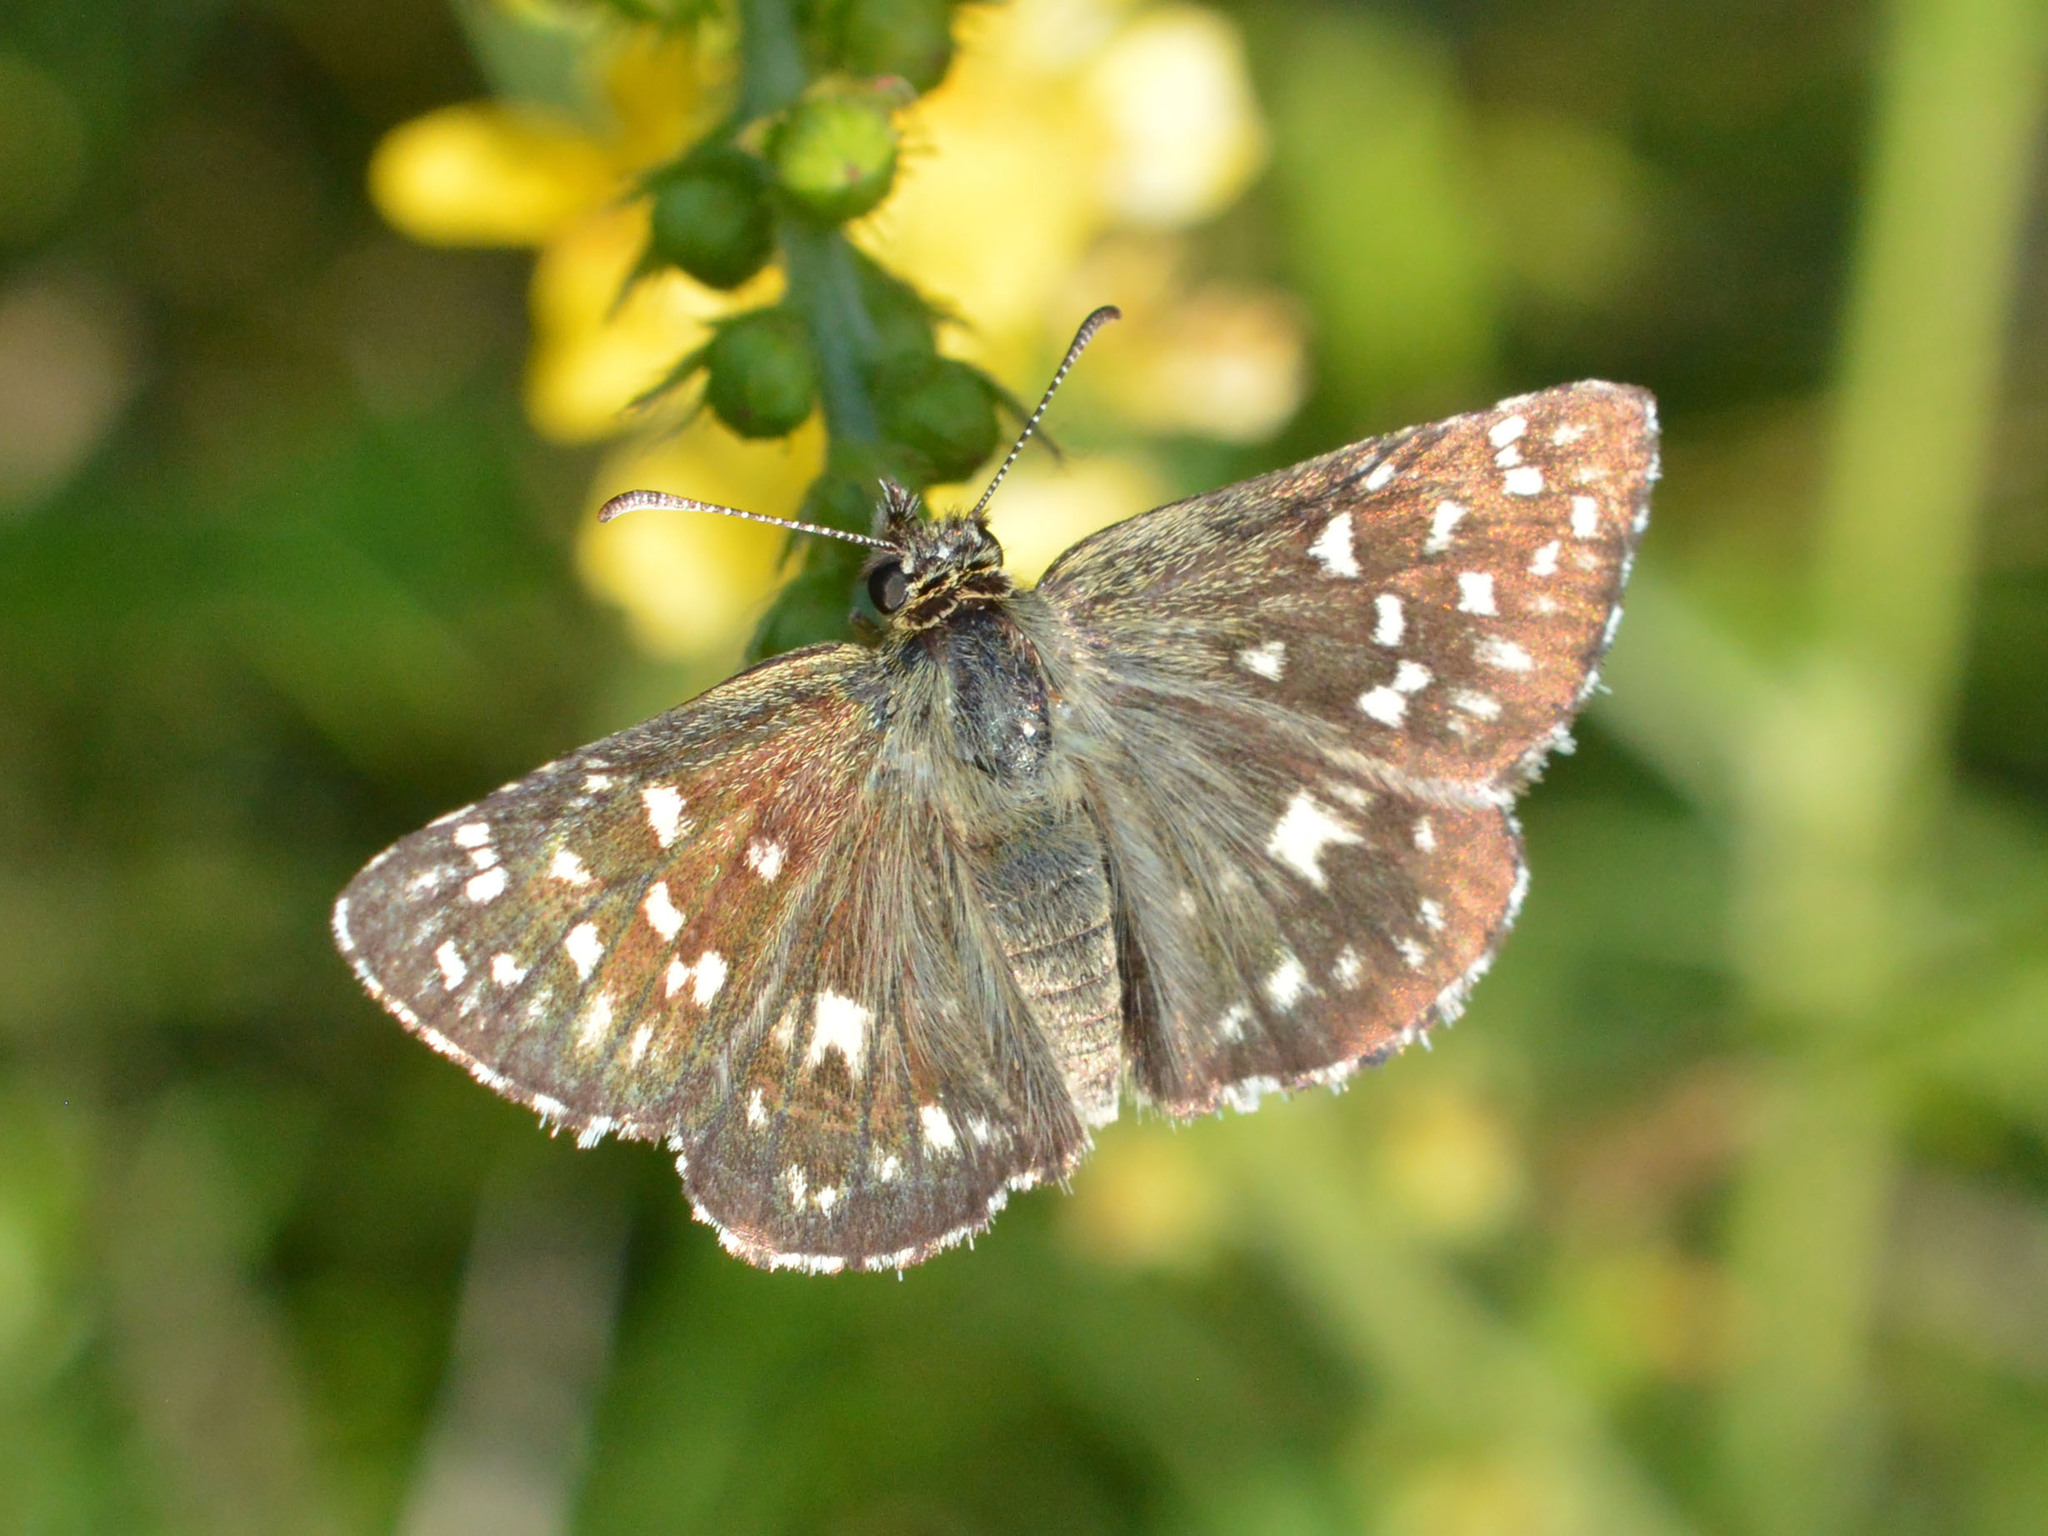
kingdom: Animalia
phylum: Arthropoda
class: Insecta
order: Lepidoptera
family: Hesperiidae
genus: Pyrgus
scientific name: Pyrgus malvae
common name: Grizzled skipper
